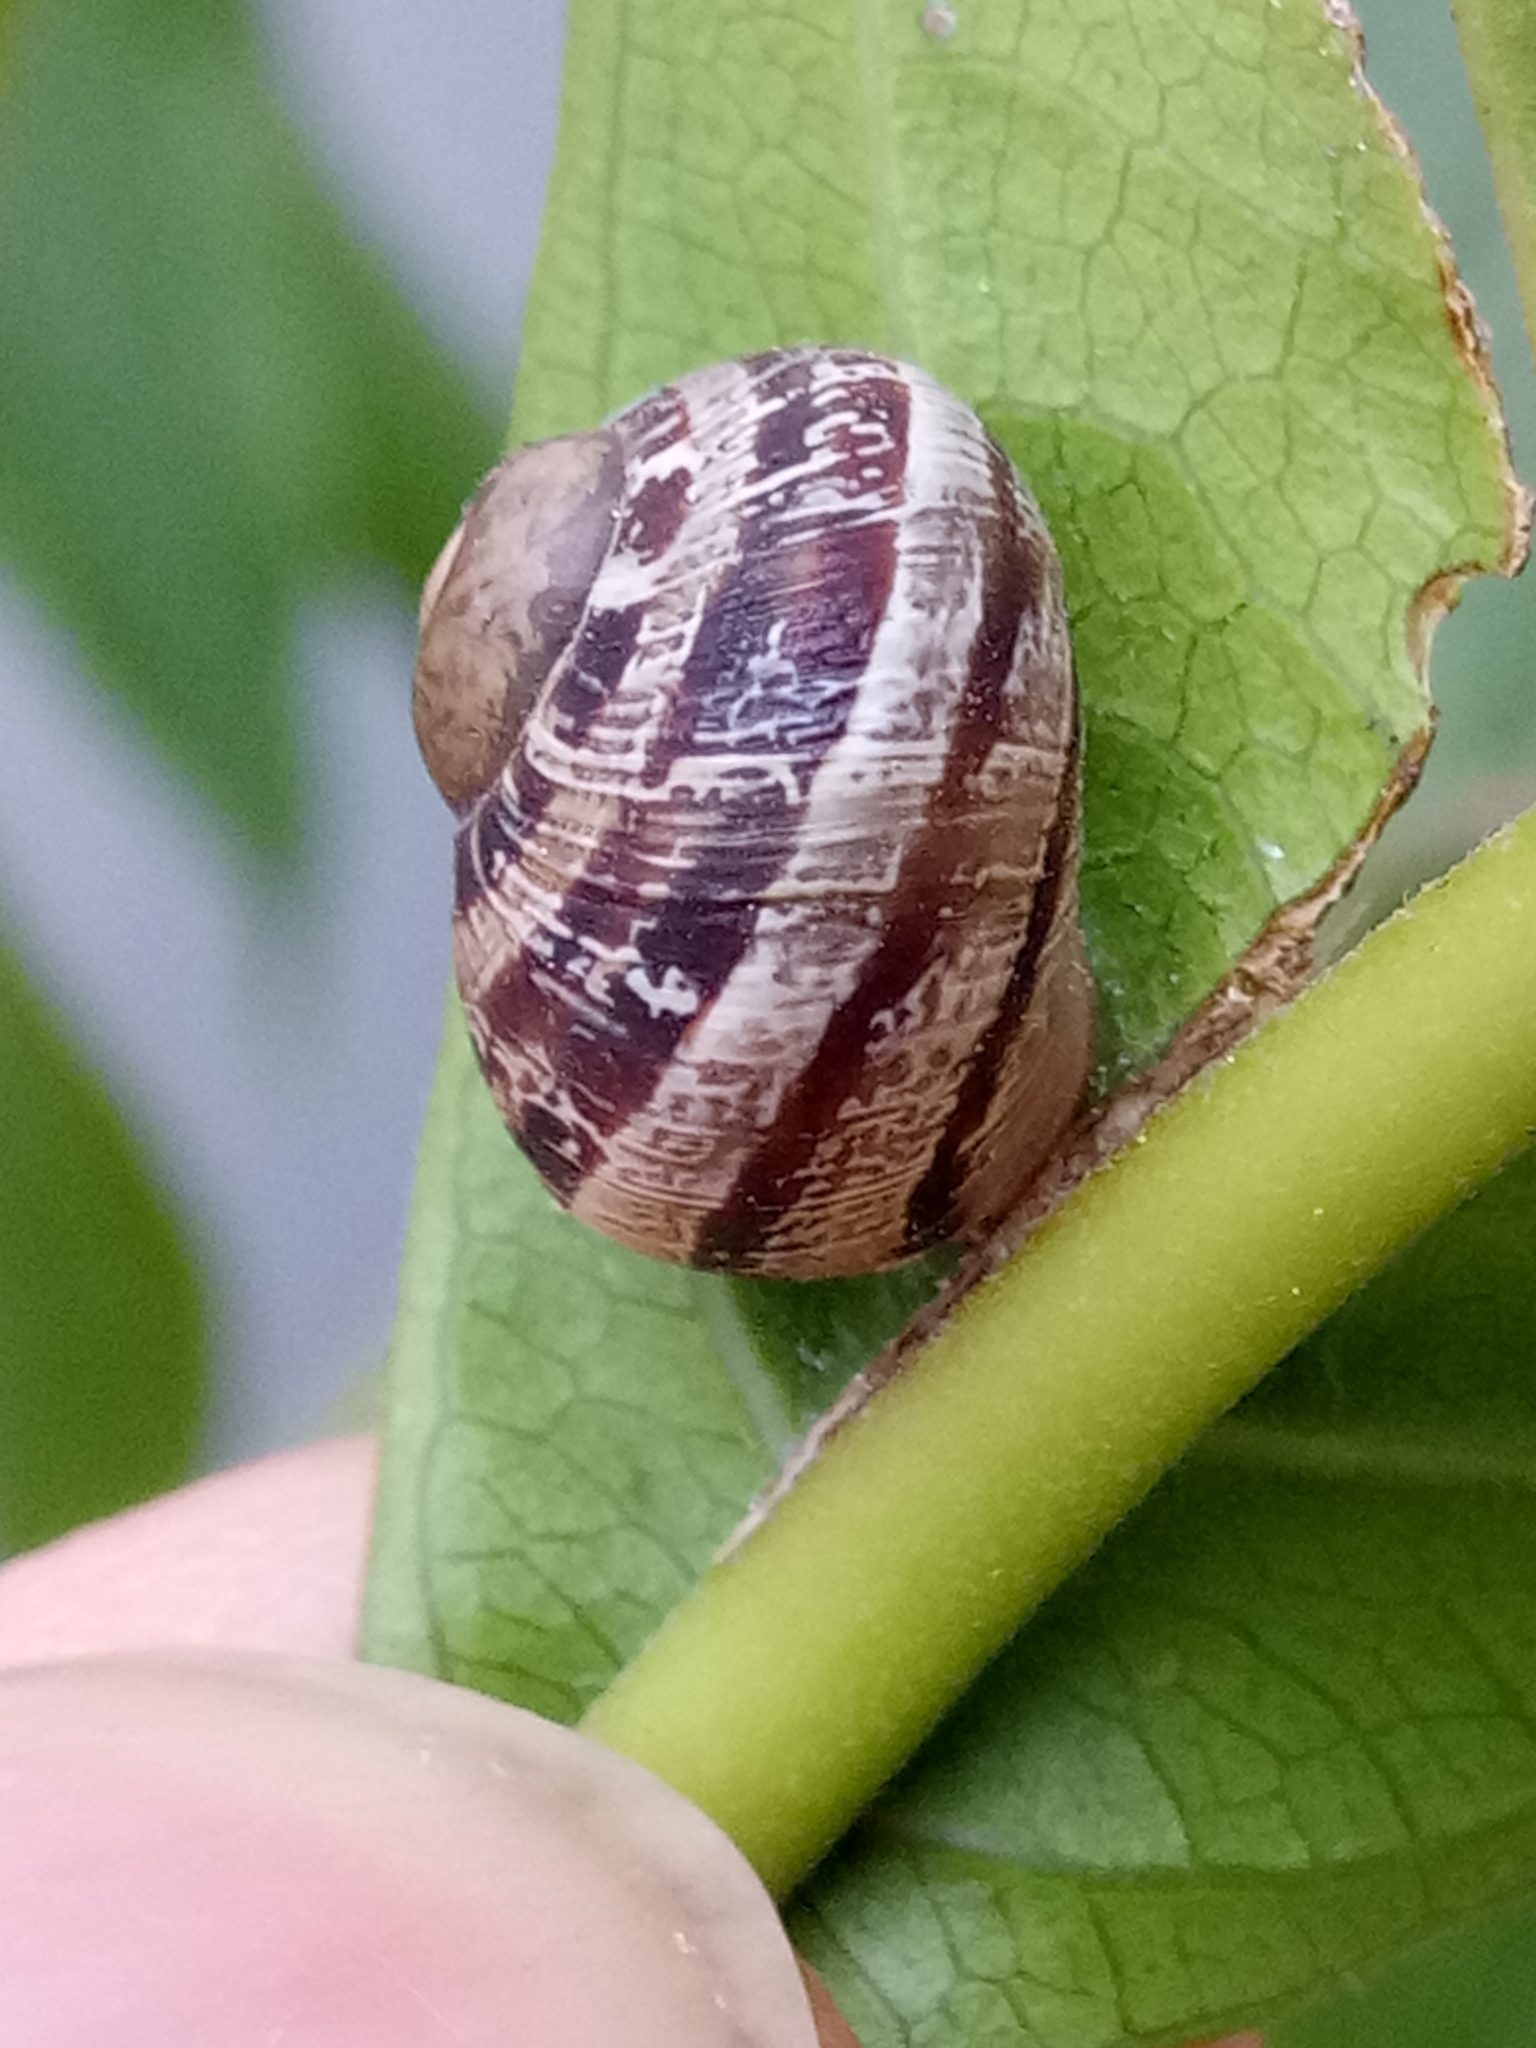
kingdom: Animalia
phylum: Mollusca
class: Gastropoda
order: Stylommatophora
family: Helicidae
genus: Cornu
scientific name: Cornu aspersum
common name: Brown garden snail
